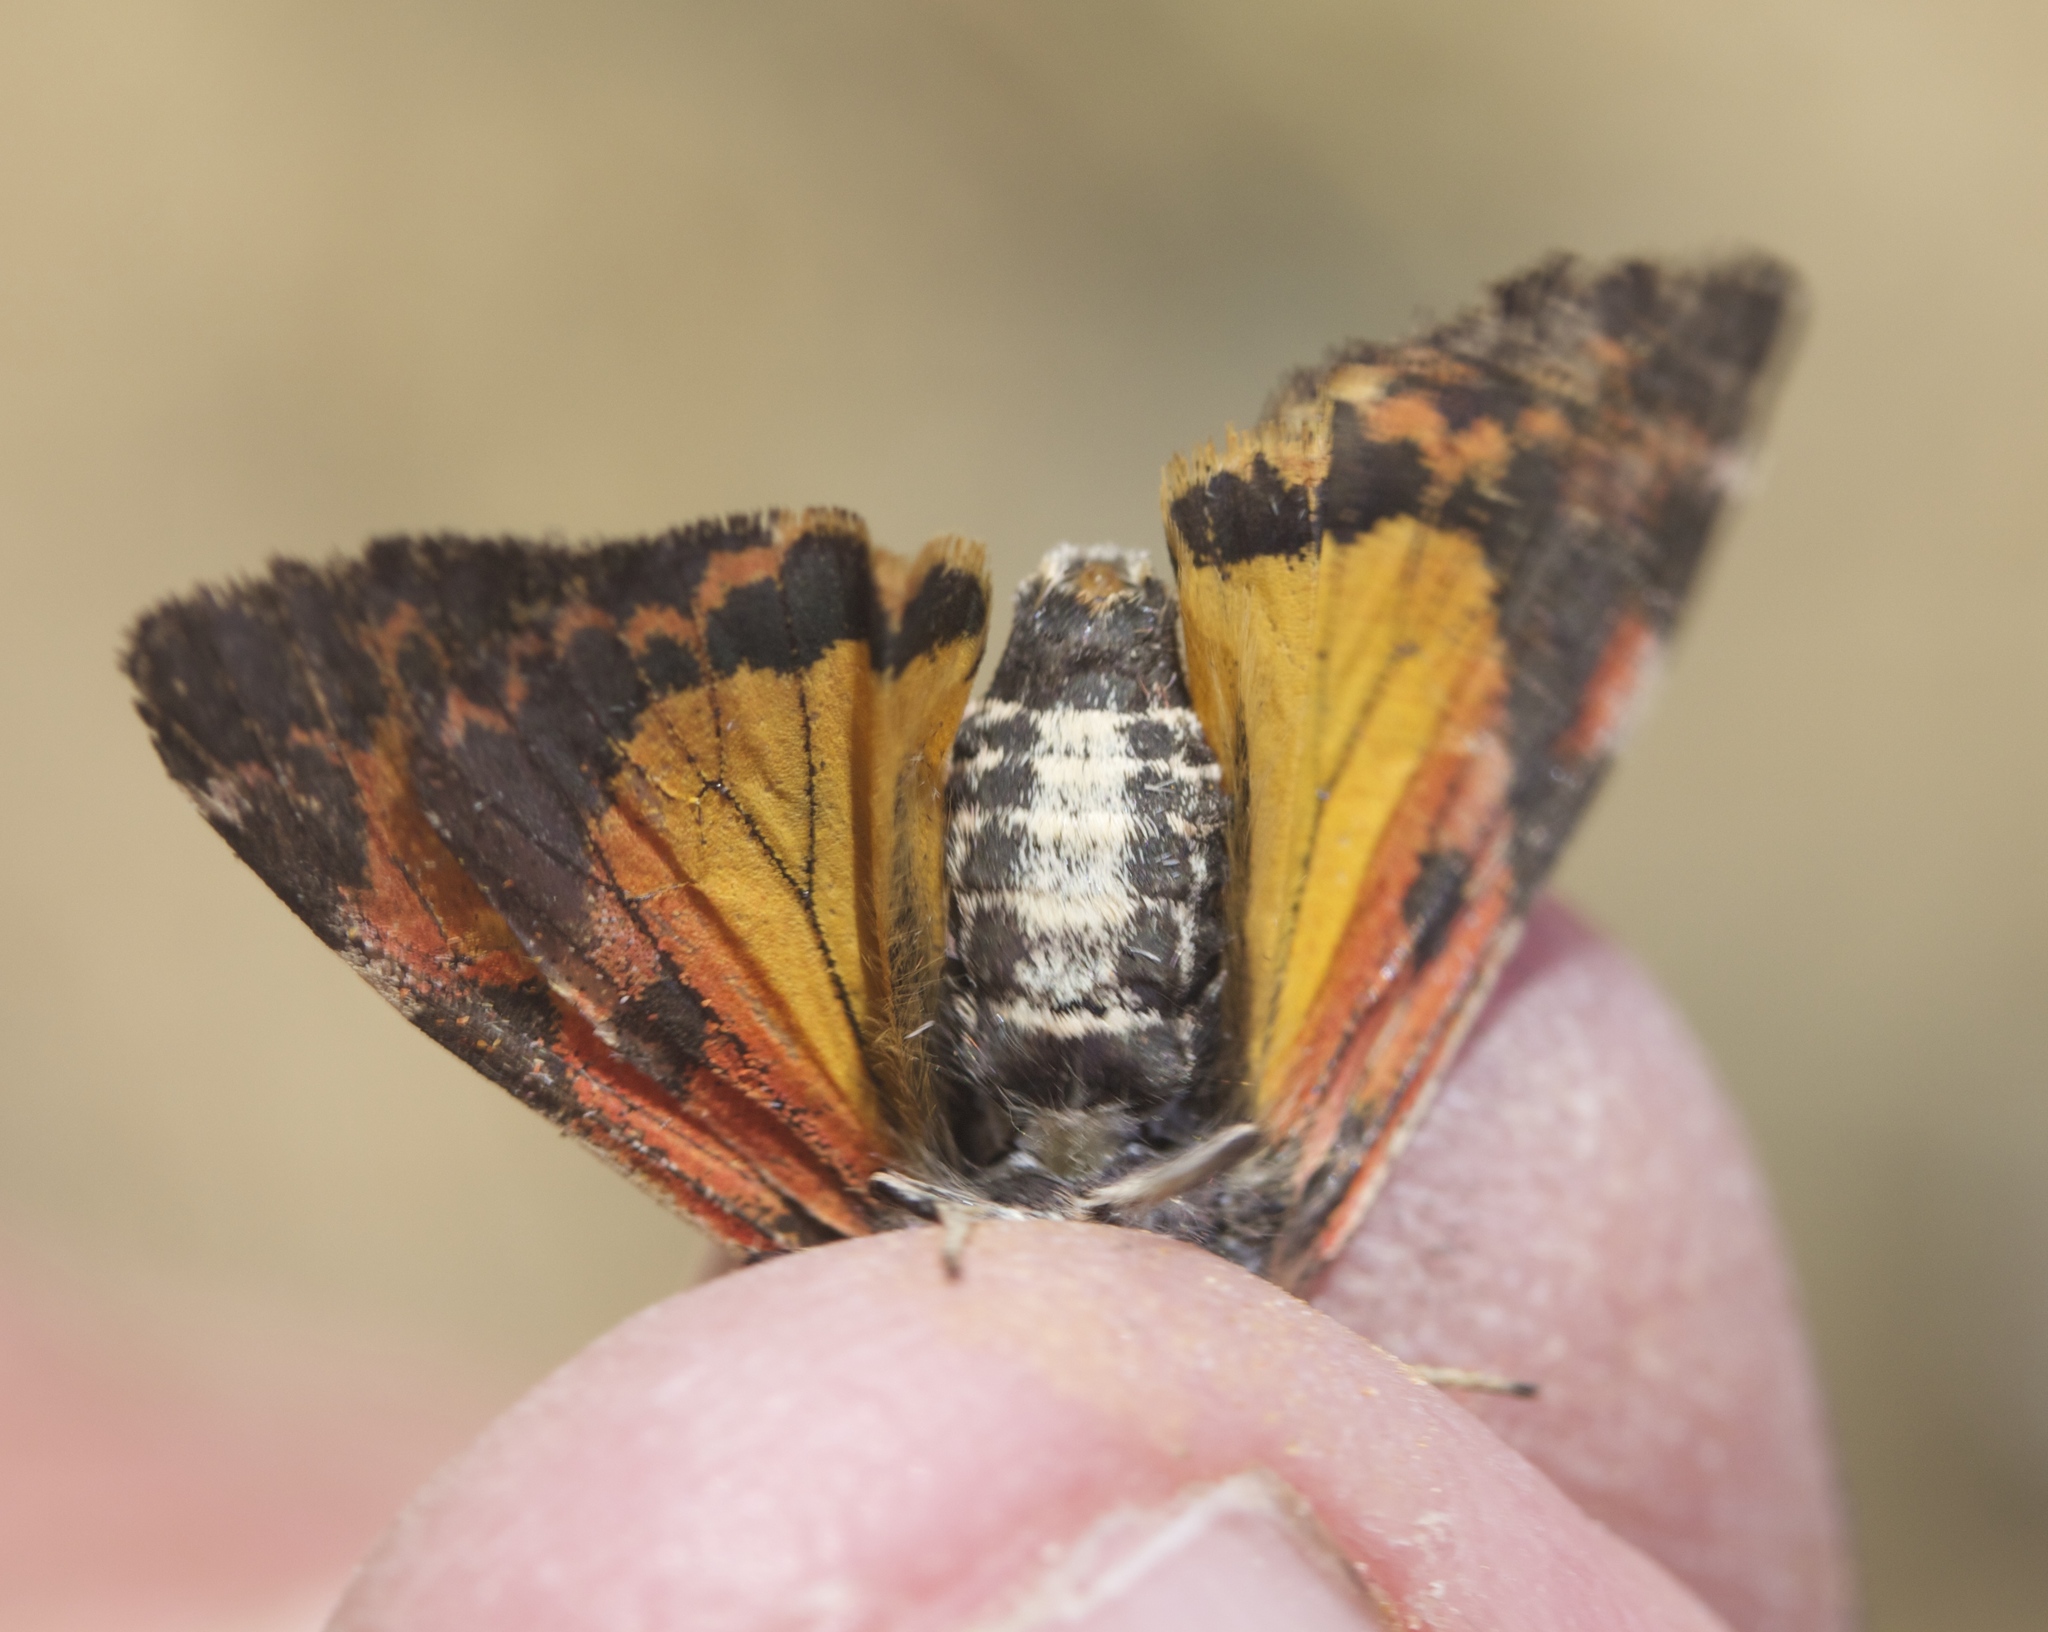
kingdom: Animalia
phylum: Arthropoda
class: Insecta
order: Lepidoptera
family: Erebidae
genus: Leptarctia
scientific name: Leptarctia californiae
